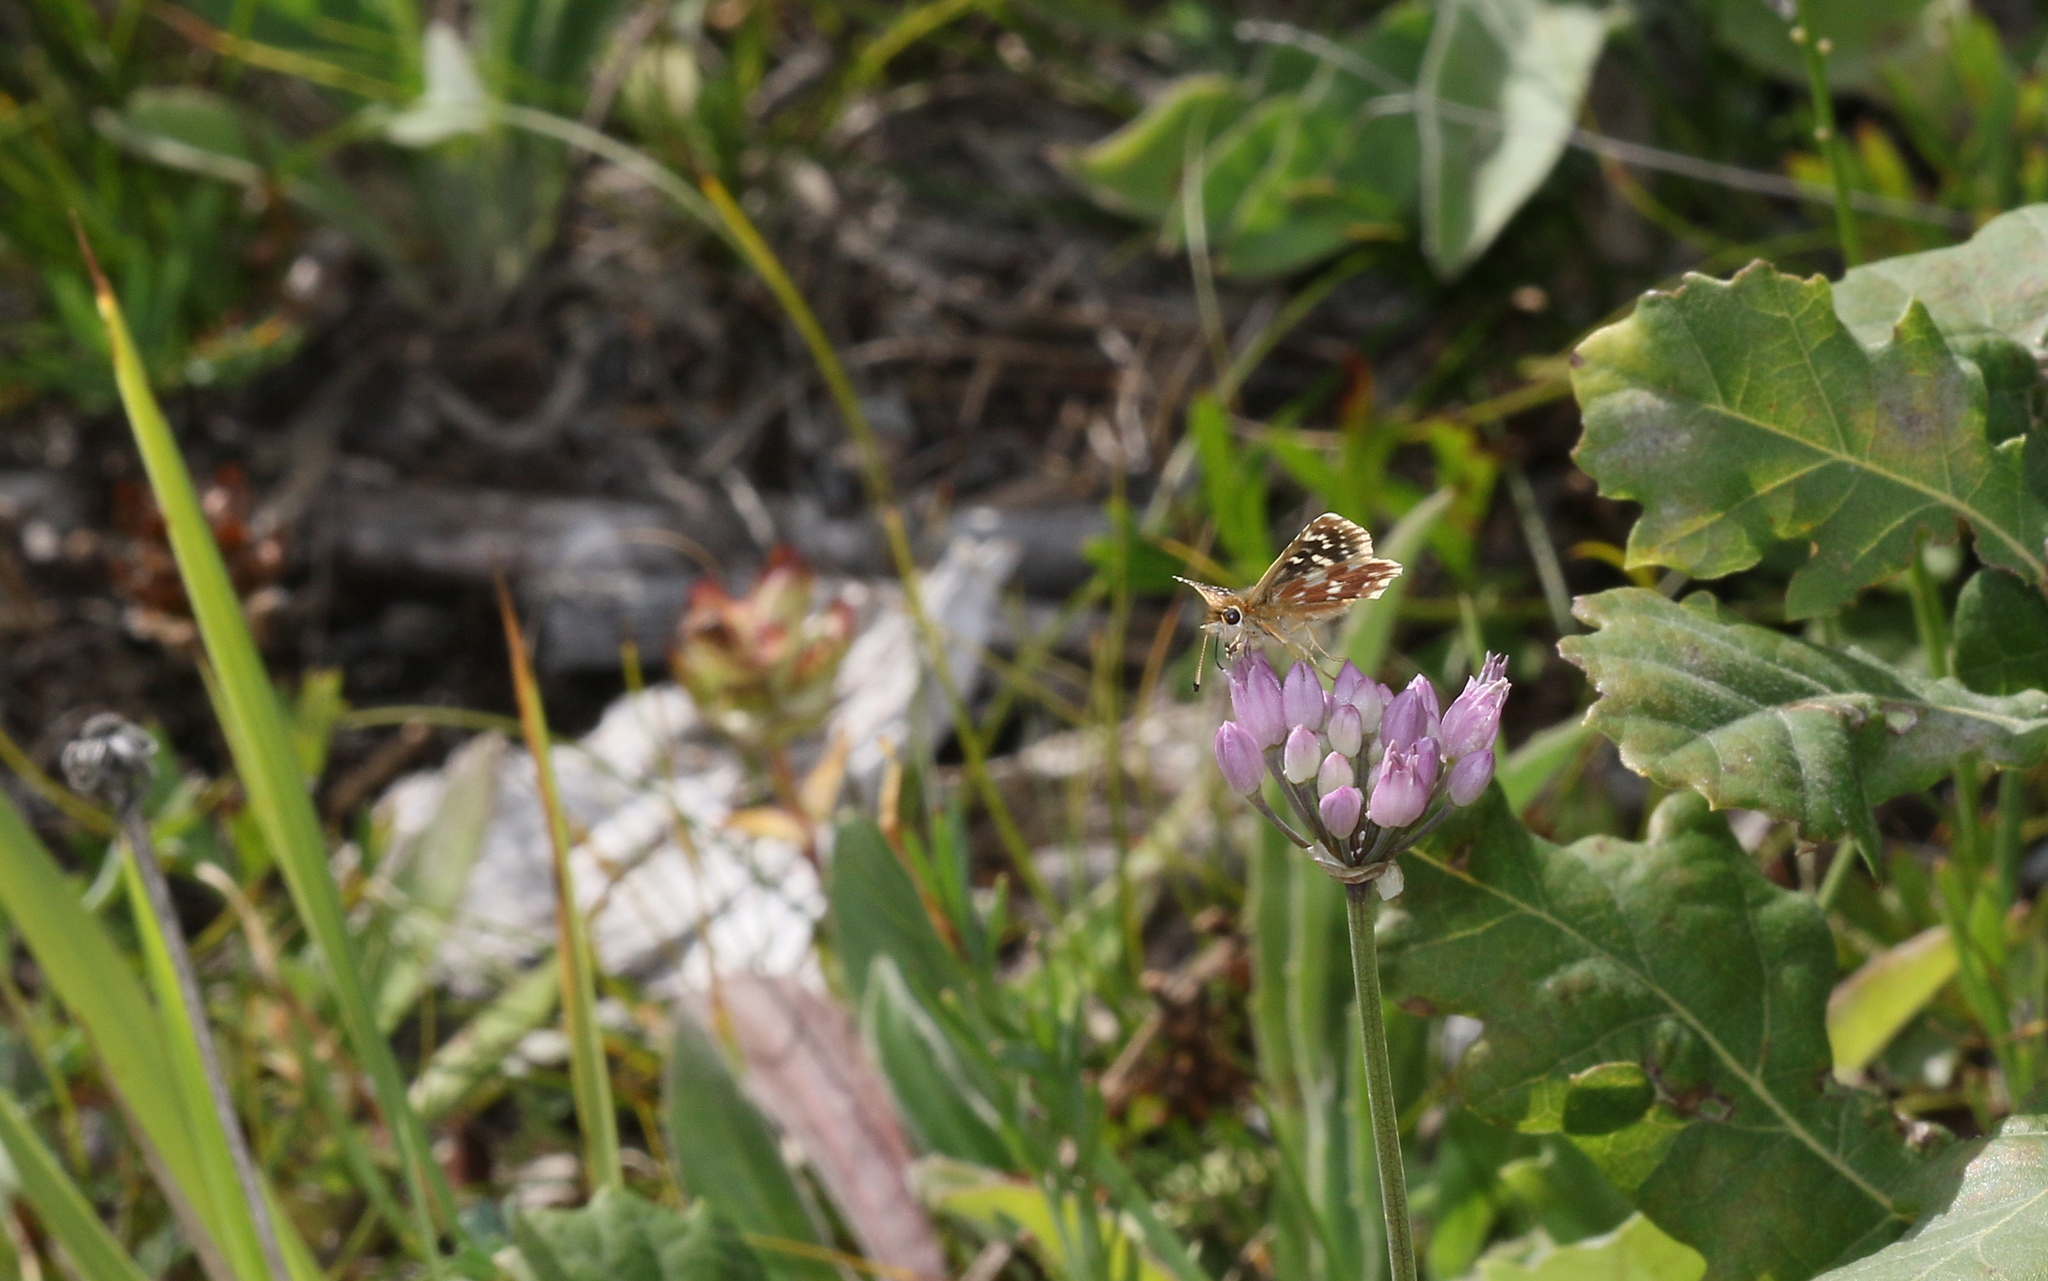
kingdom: Animalia
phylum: Arthropoda
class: Insecta
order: Lepidoptera
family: Hesperiidae
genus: Spialia
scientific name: Spialia sertorius
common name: Red underwing skipper
